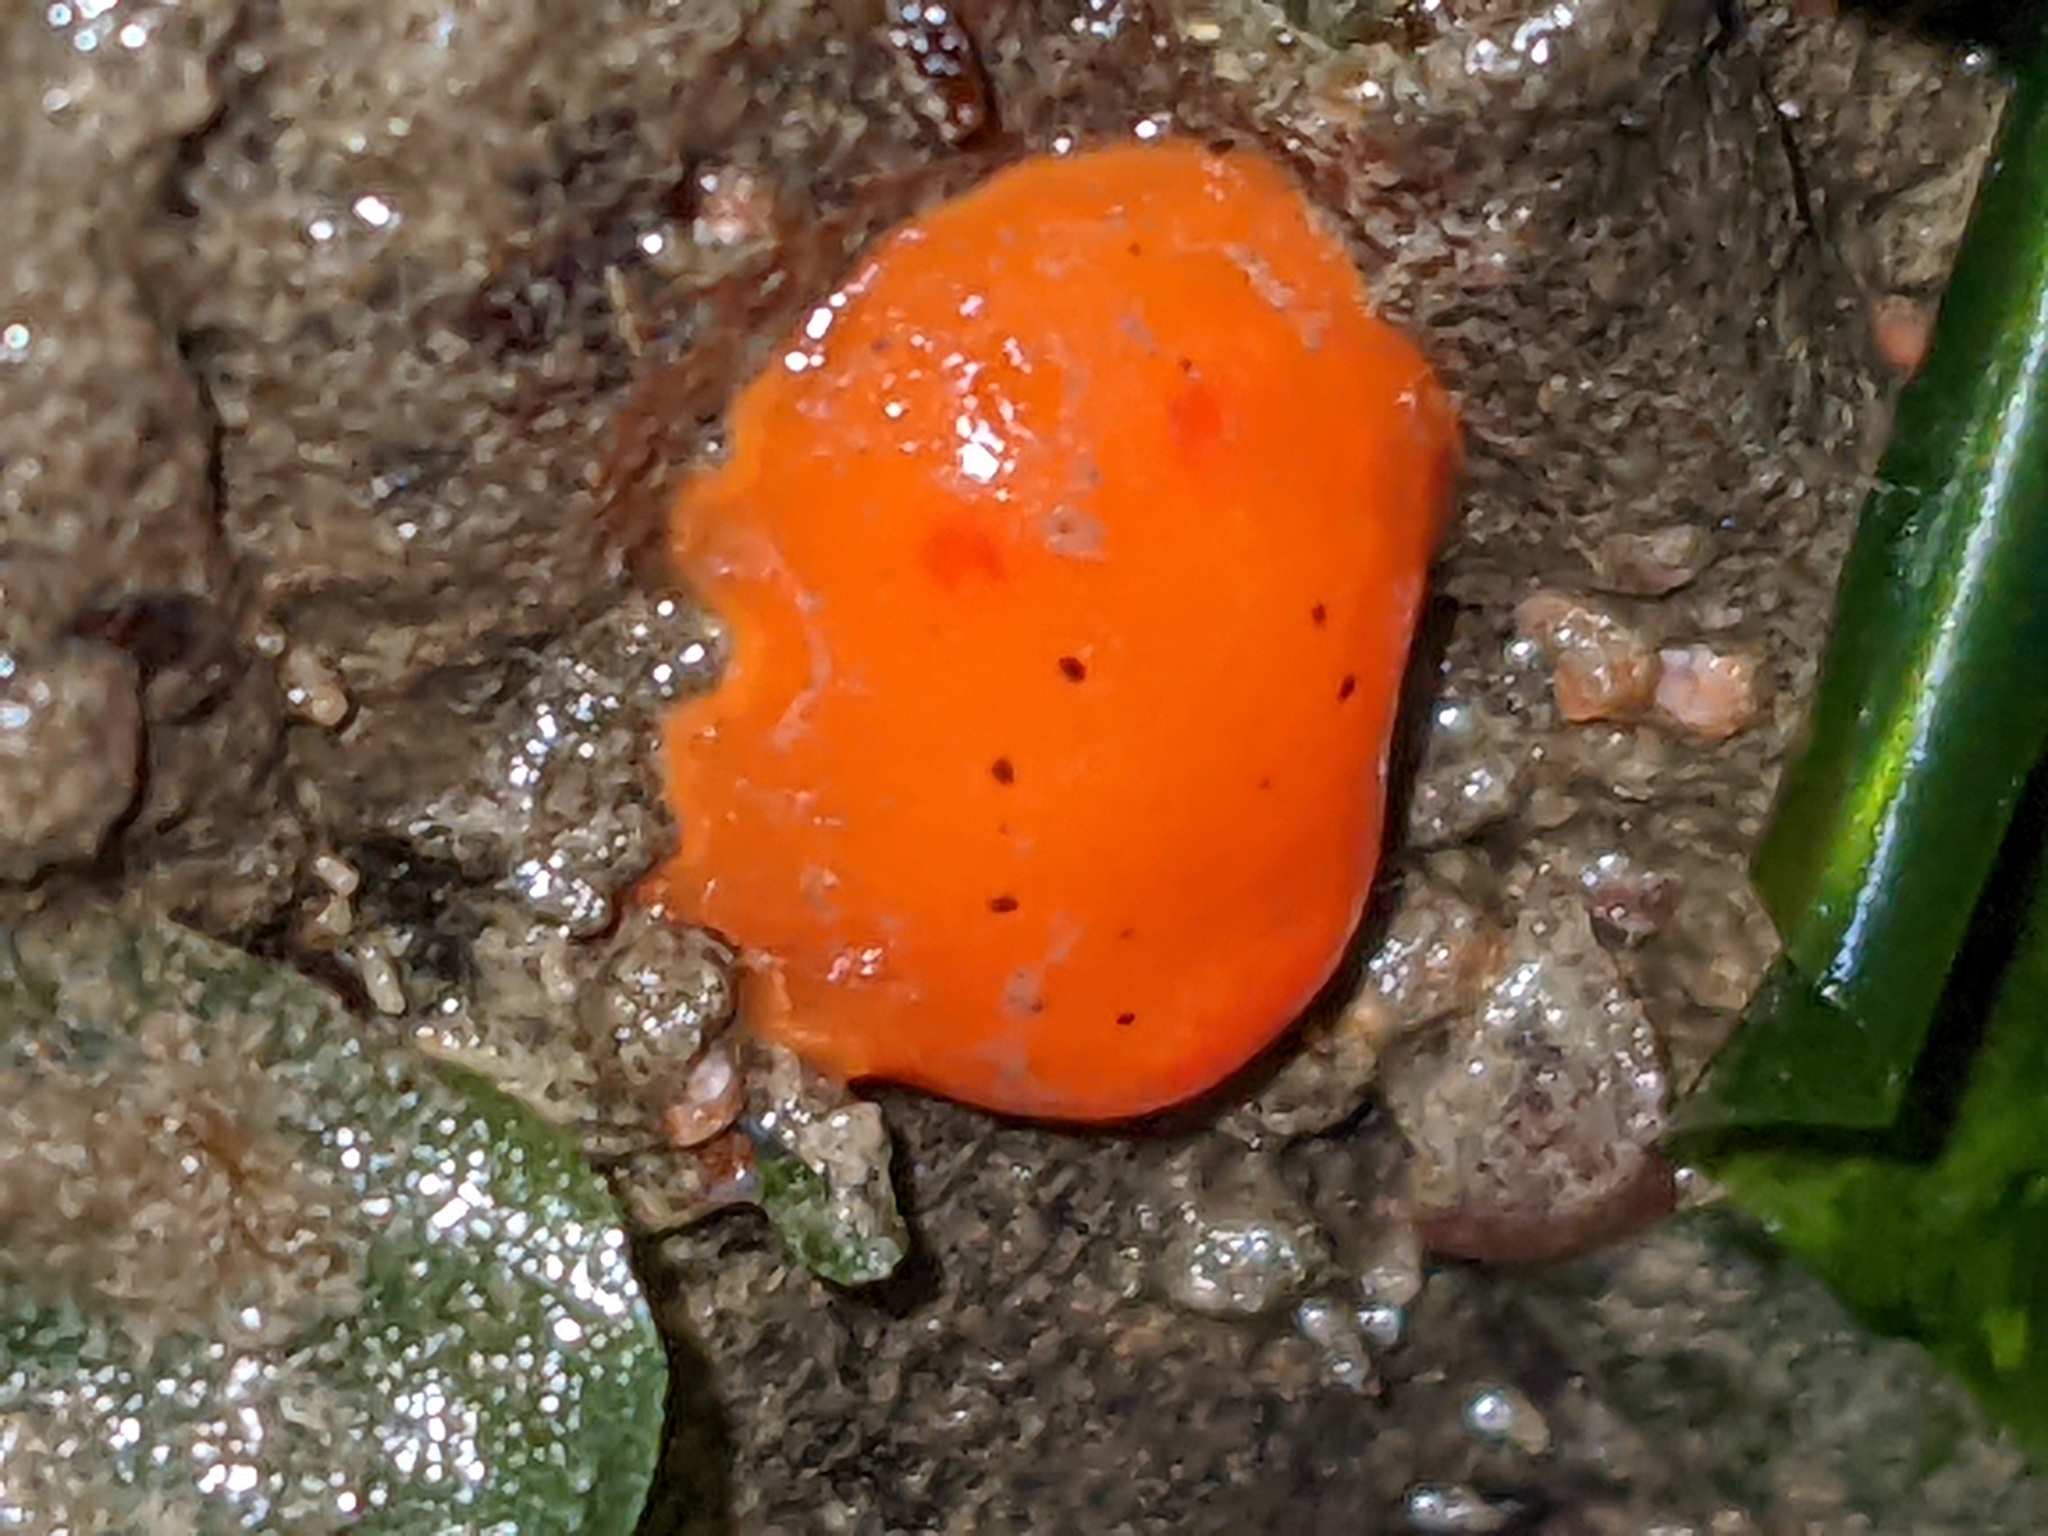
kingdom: Animalia
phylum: Mollusca
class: Gastropoda
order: Nudibranchia
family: Discodorididae
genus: Rostanga
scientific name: Rostanga pulchra
